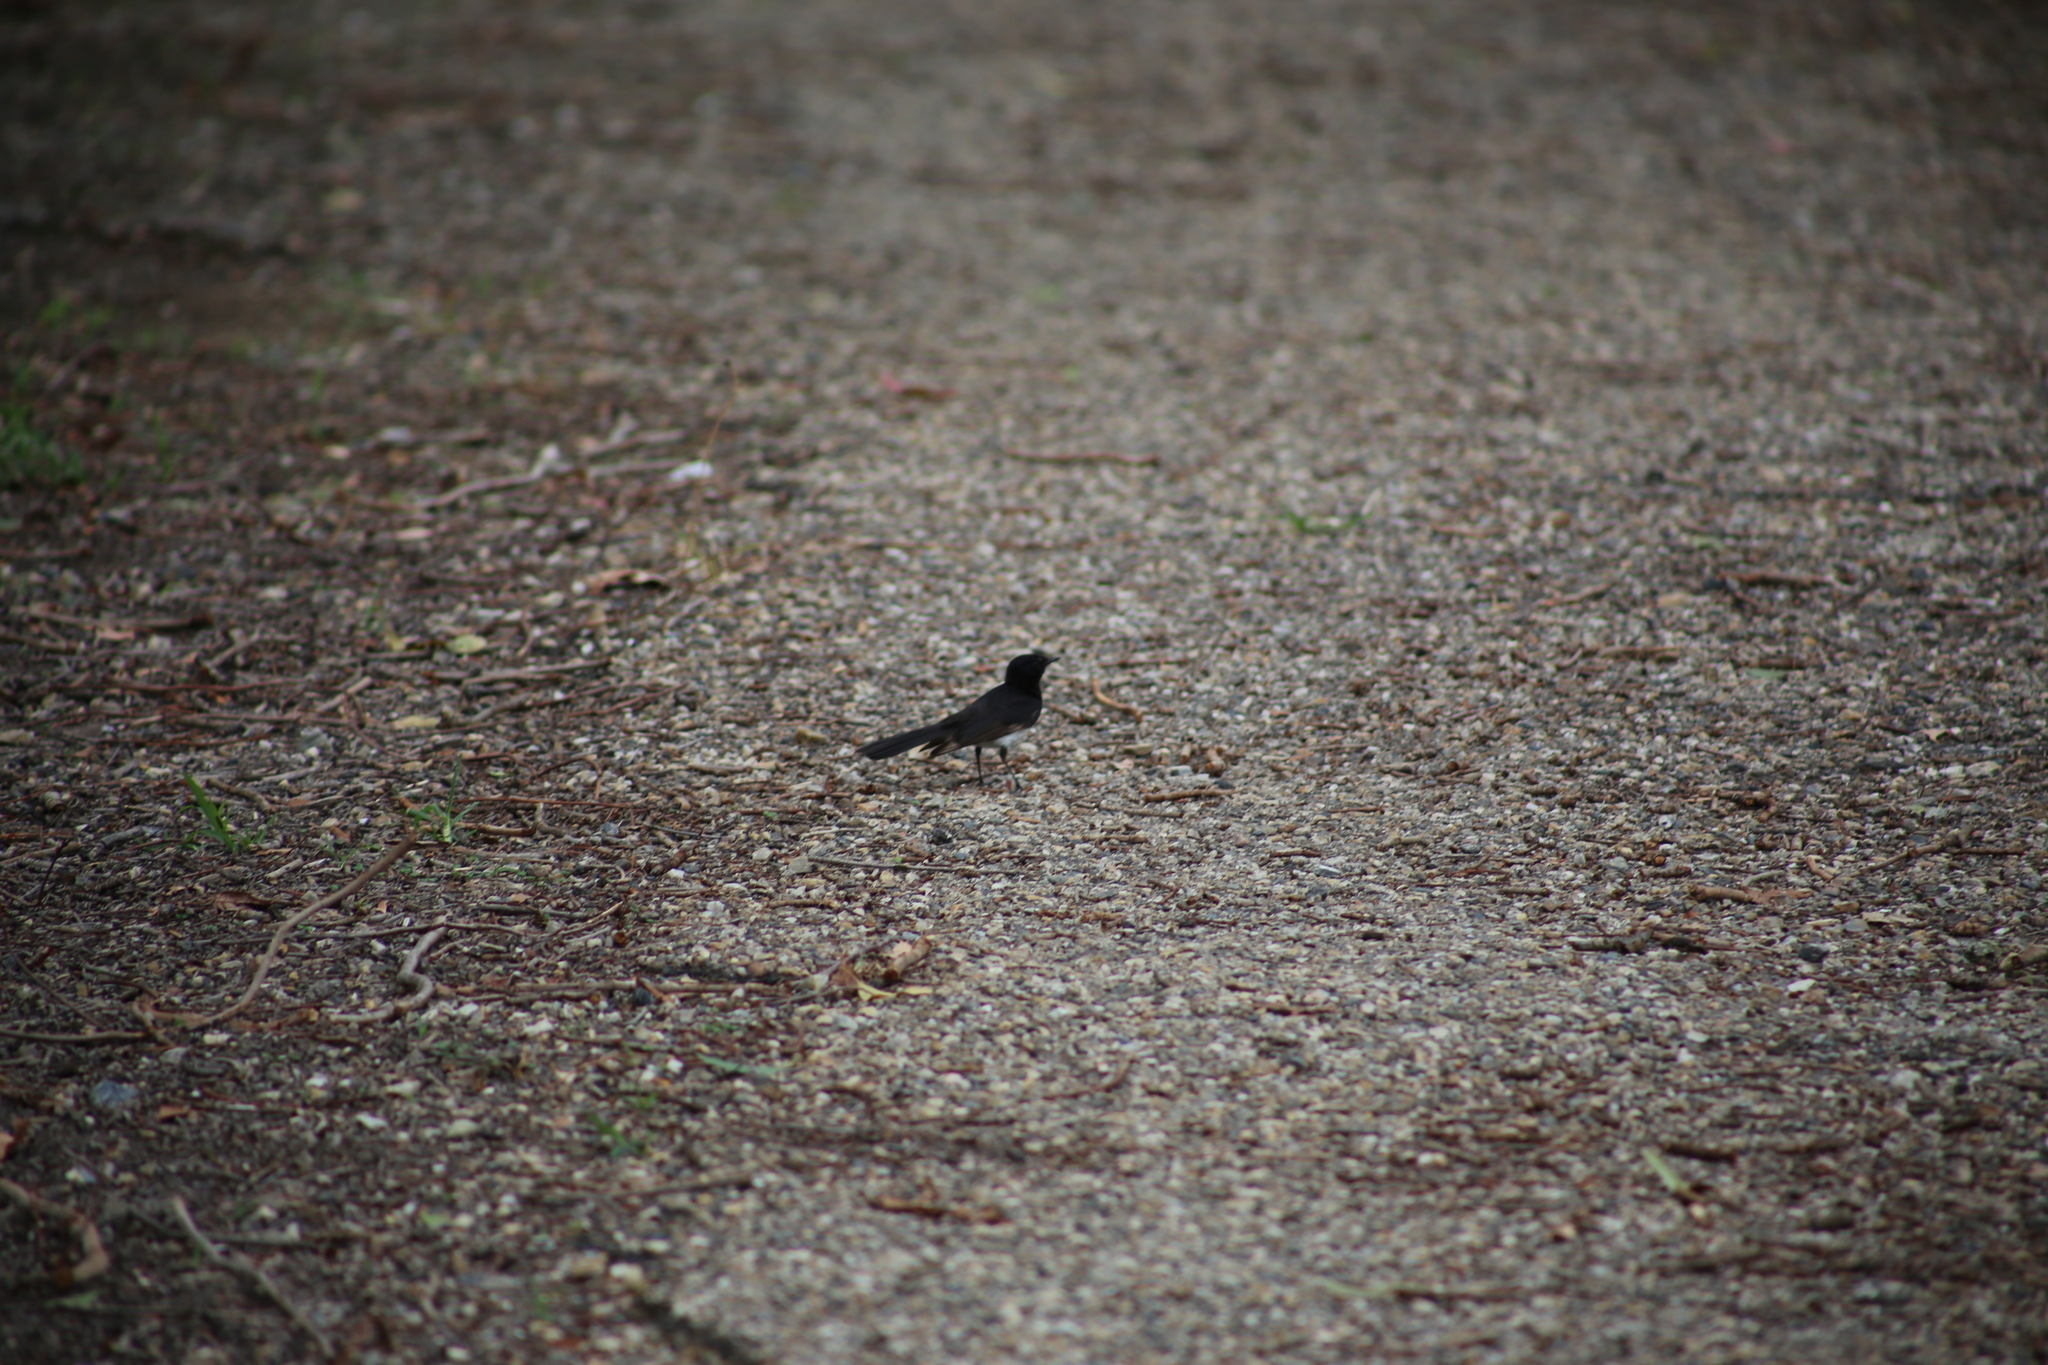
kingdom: Animalia
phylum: Chordata
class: Aves
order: Passeriformes
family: Rhipiduridae
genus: Rhipidura
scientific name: Rhipidura leucophrys
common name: Willie wagtail
